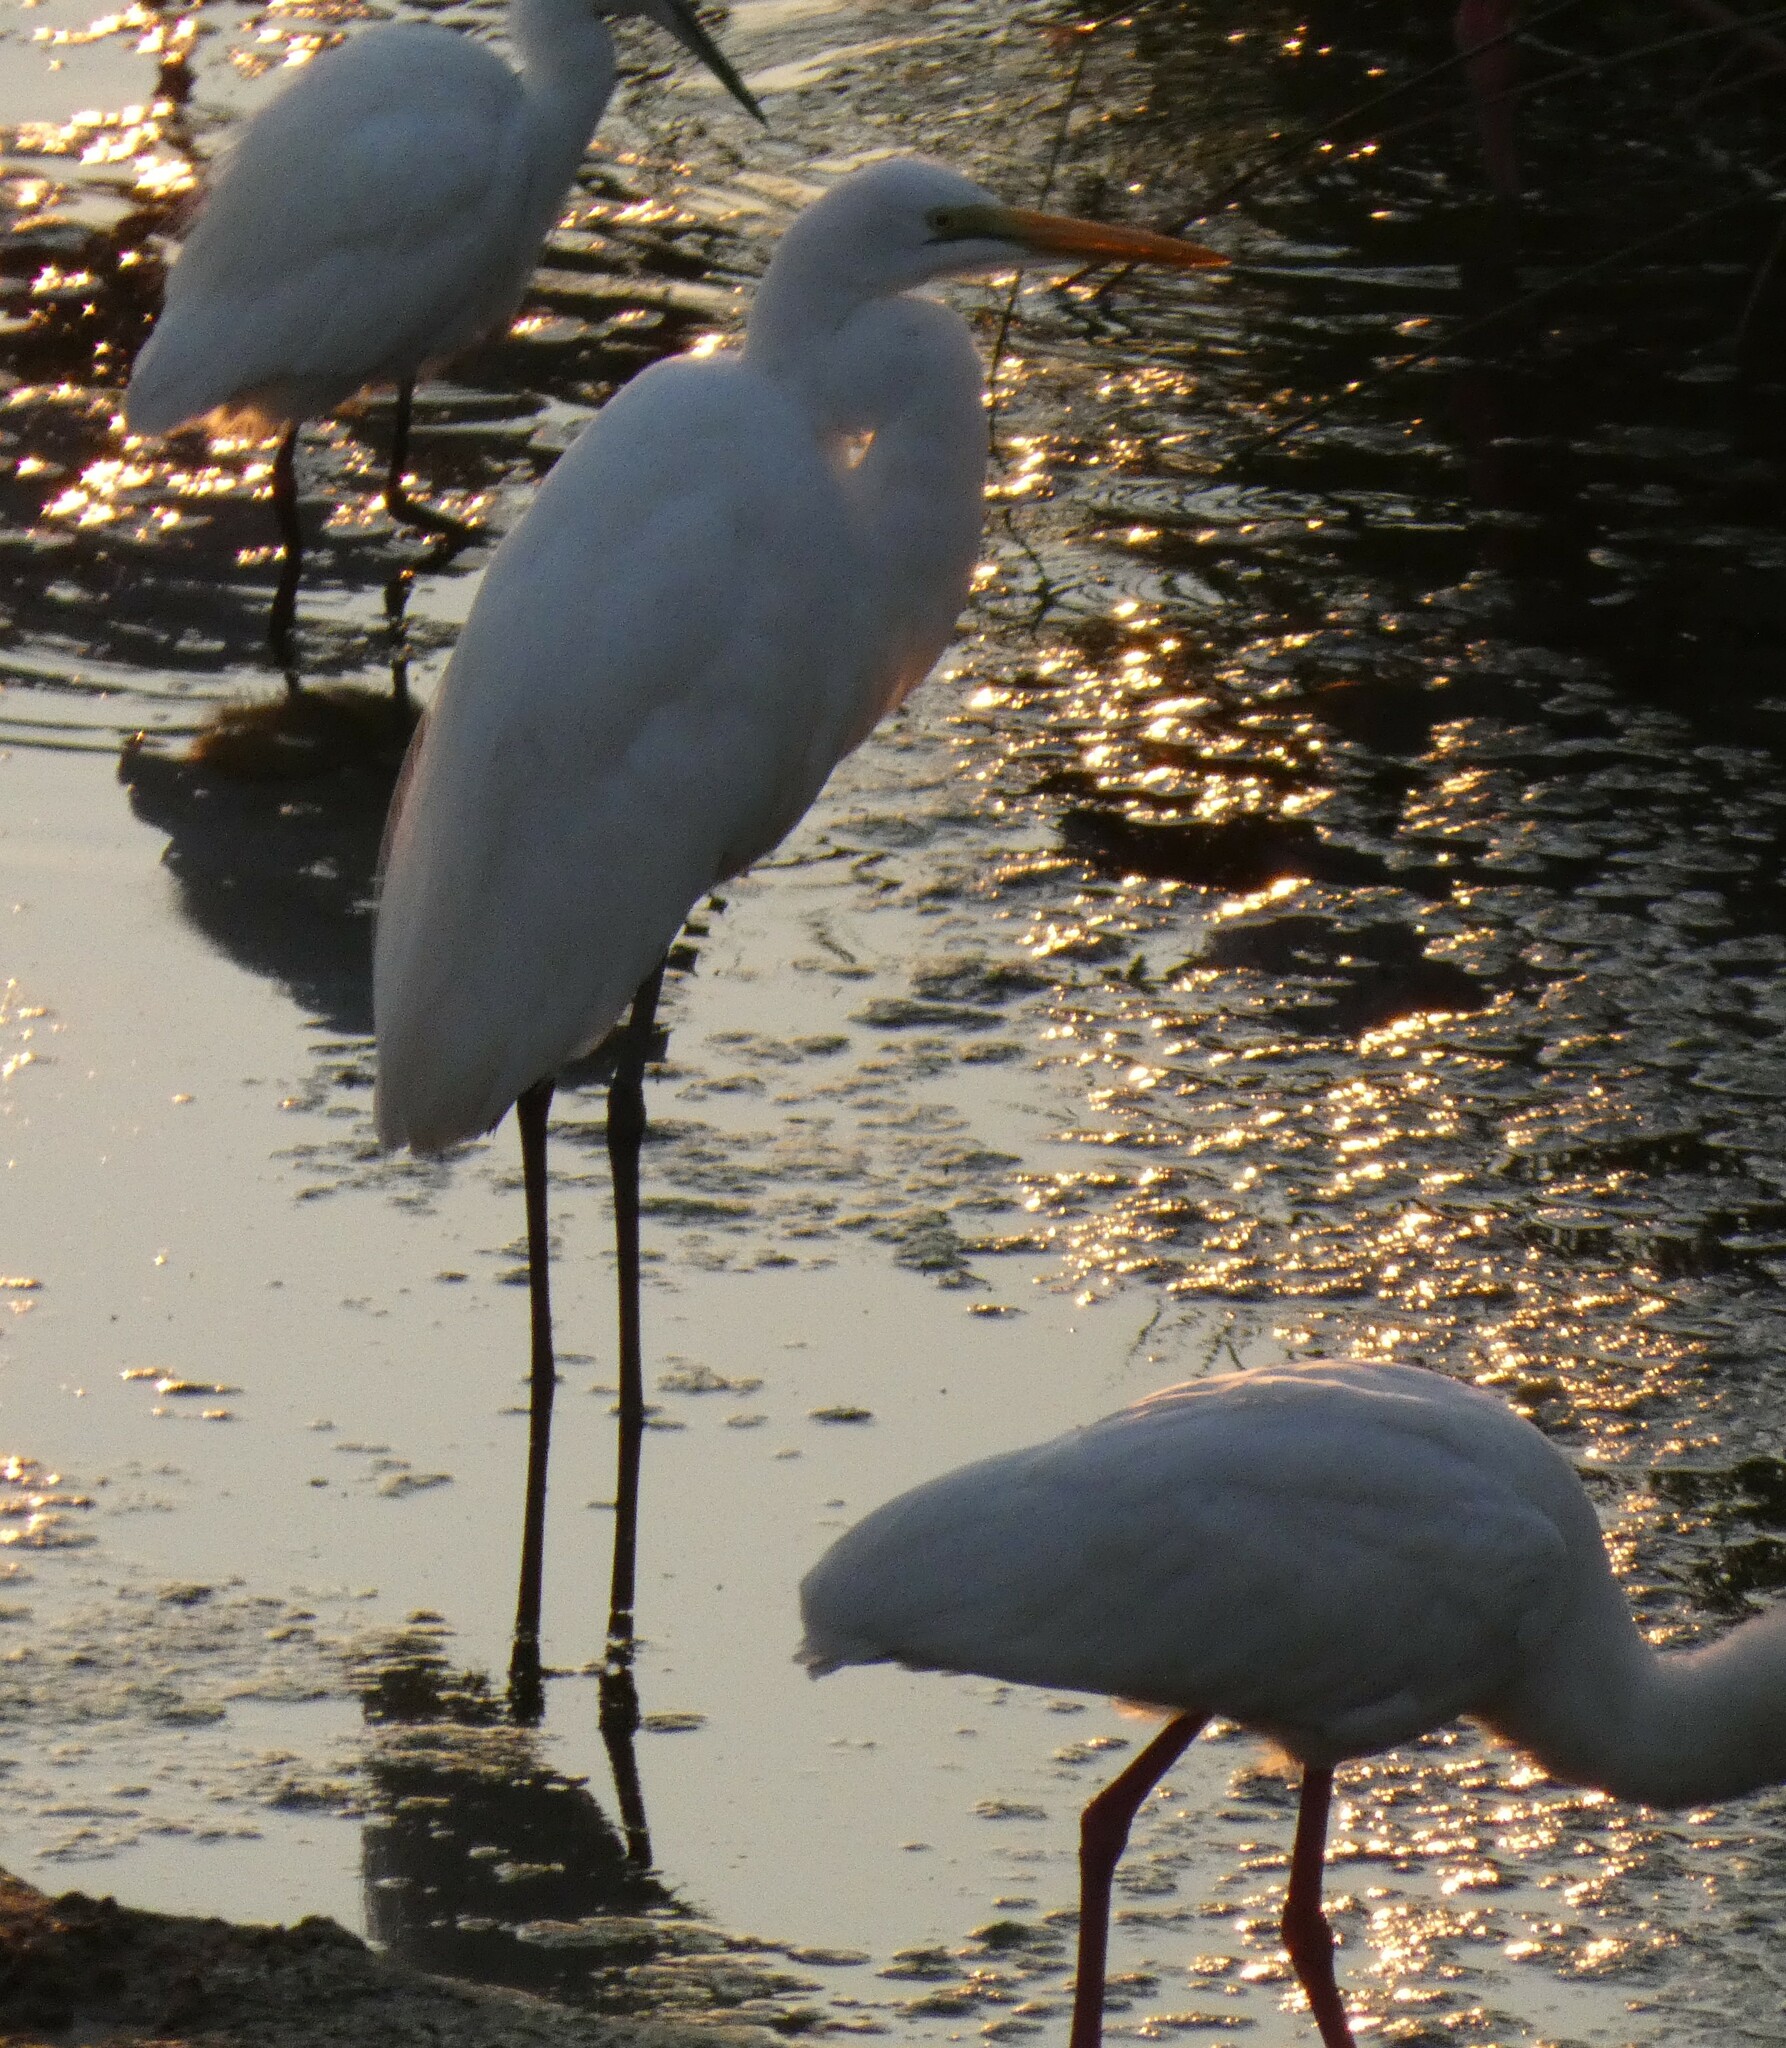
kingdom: Animalia
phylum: Chordata
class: Aves
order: Pelecaniformes
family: Ardeidae
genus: Ardea
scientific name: Ardea alba
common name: Great egret
